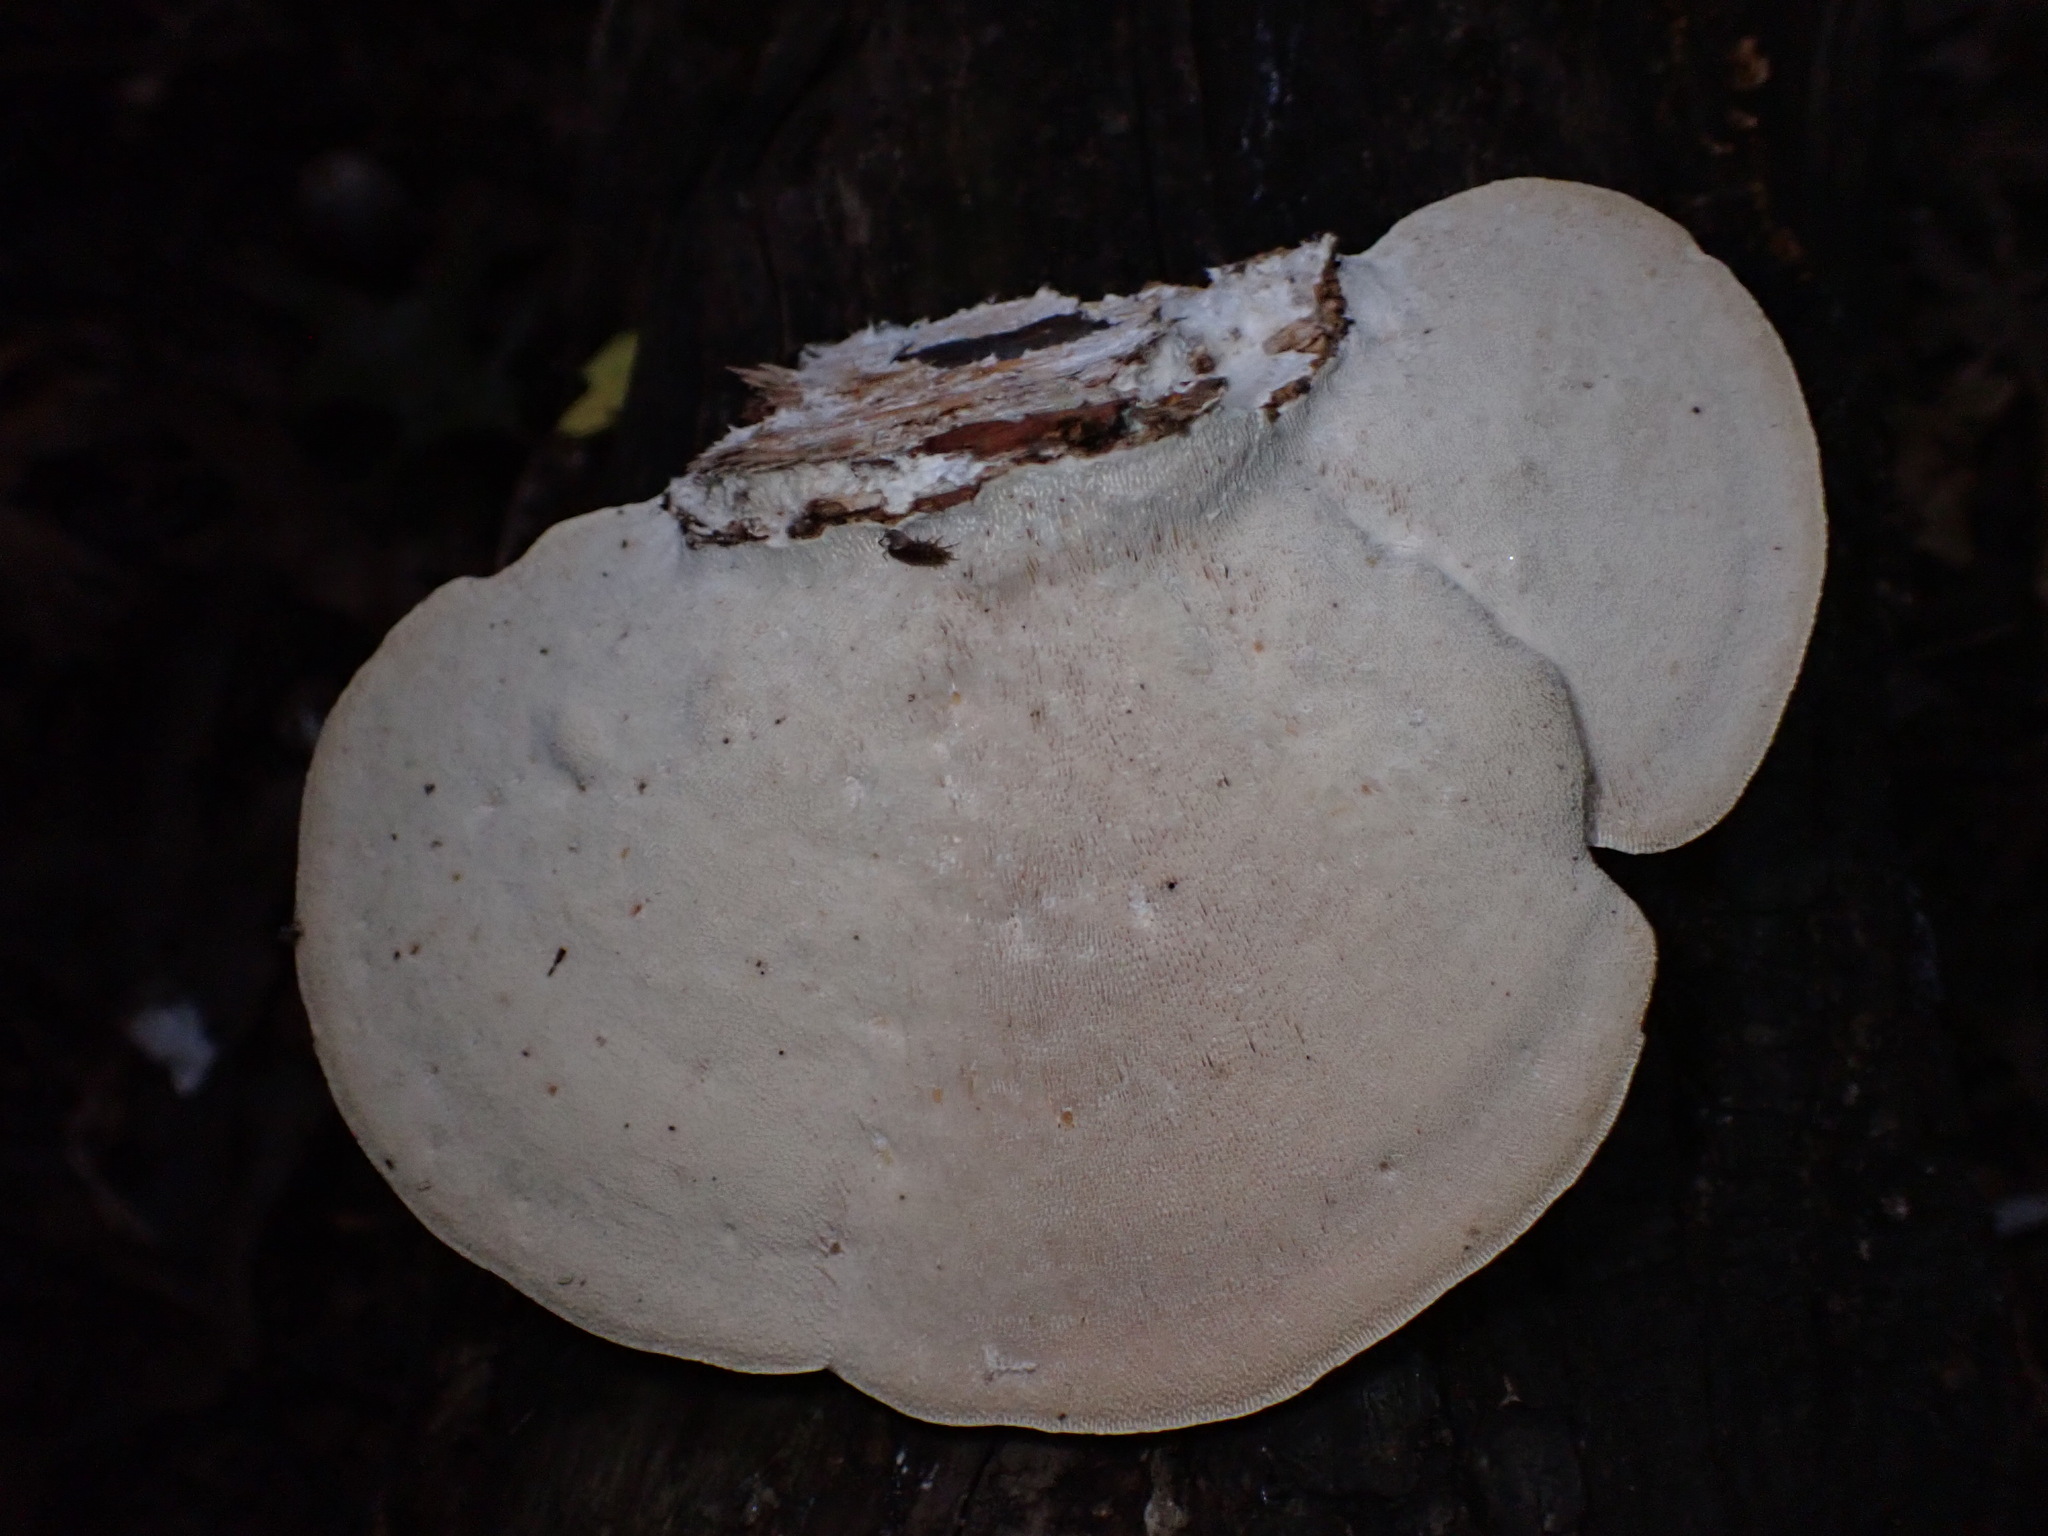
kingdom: Fungi
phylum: Basidiomycota
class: Agaricomycetes
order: Polyporales
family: Polyporaceae
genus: Trametes
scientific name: Trametes gibbosa
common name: Lumpy bracket
